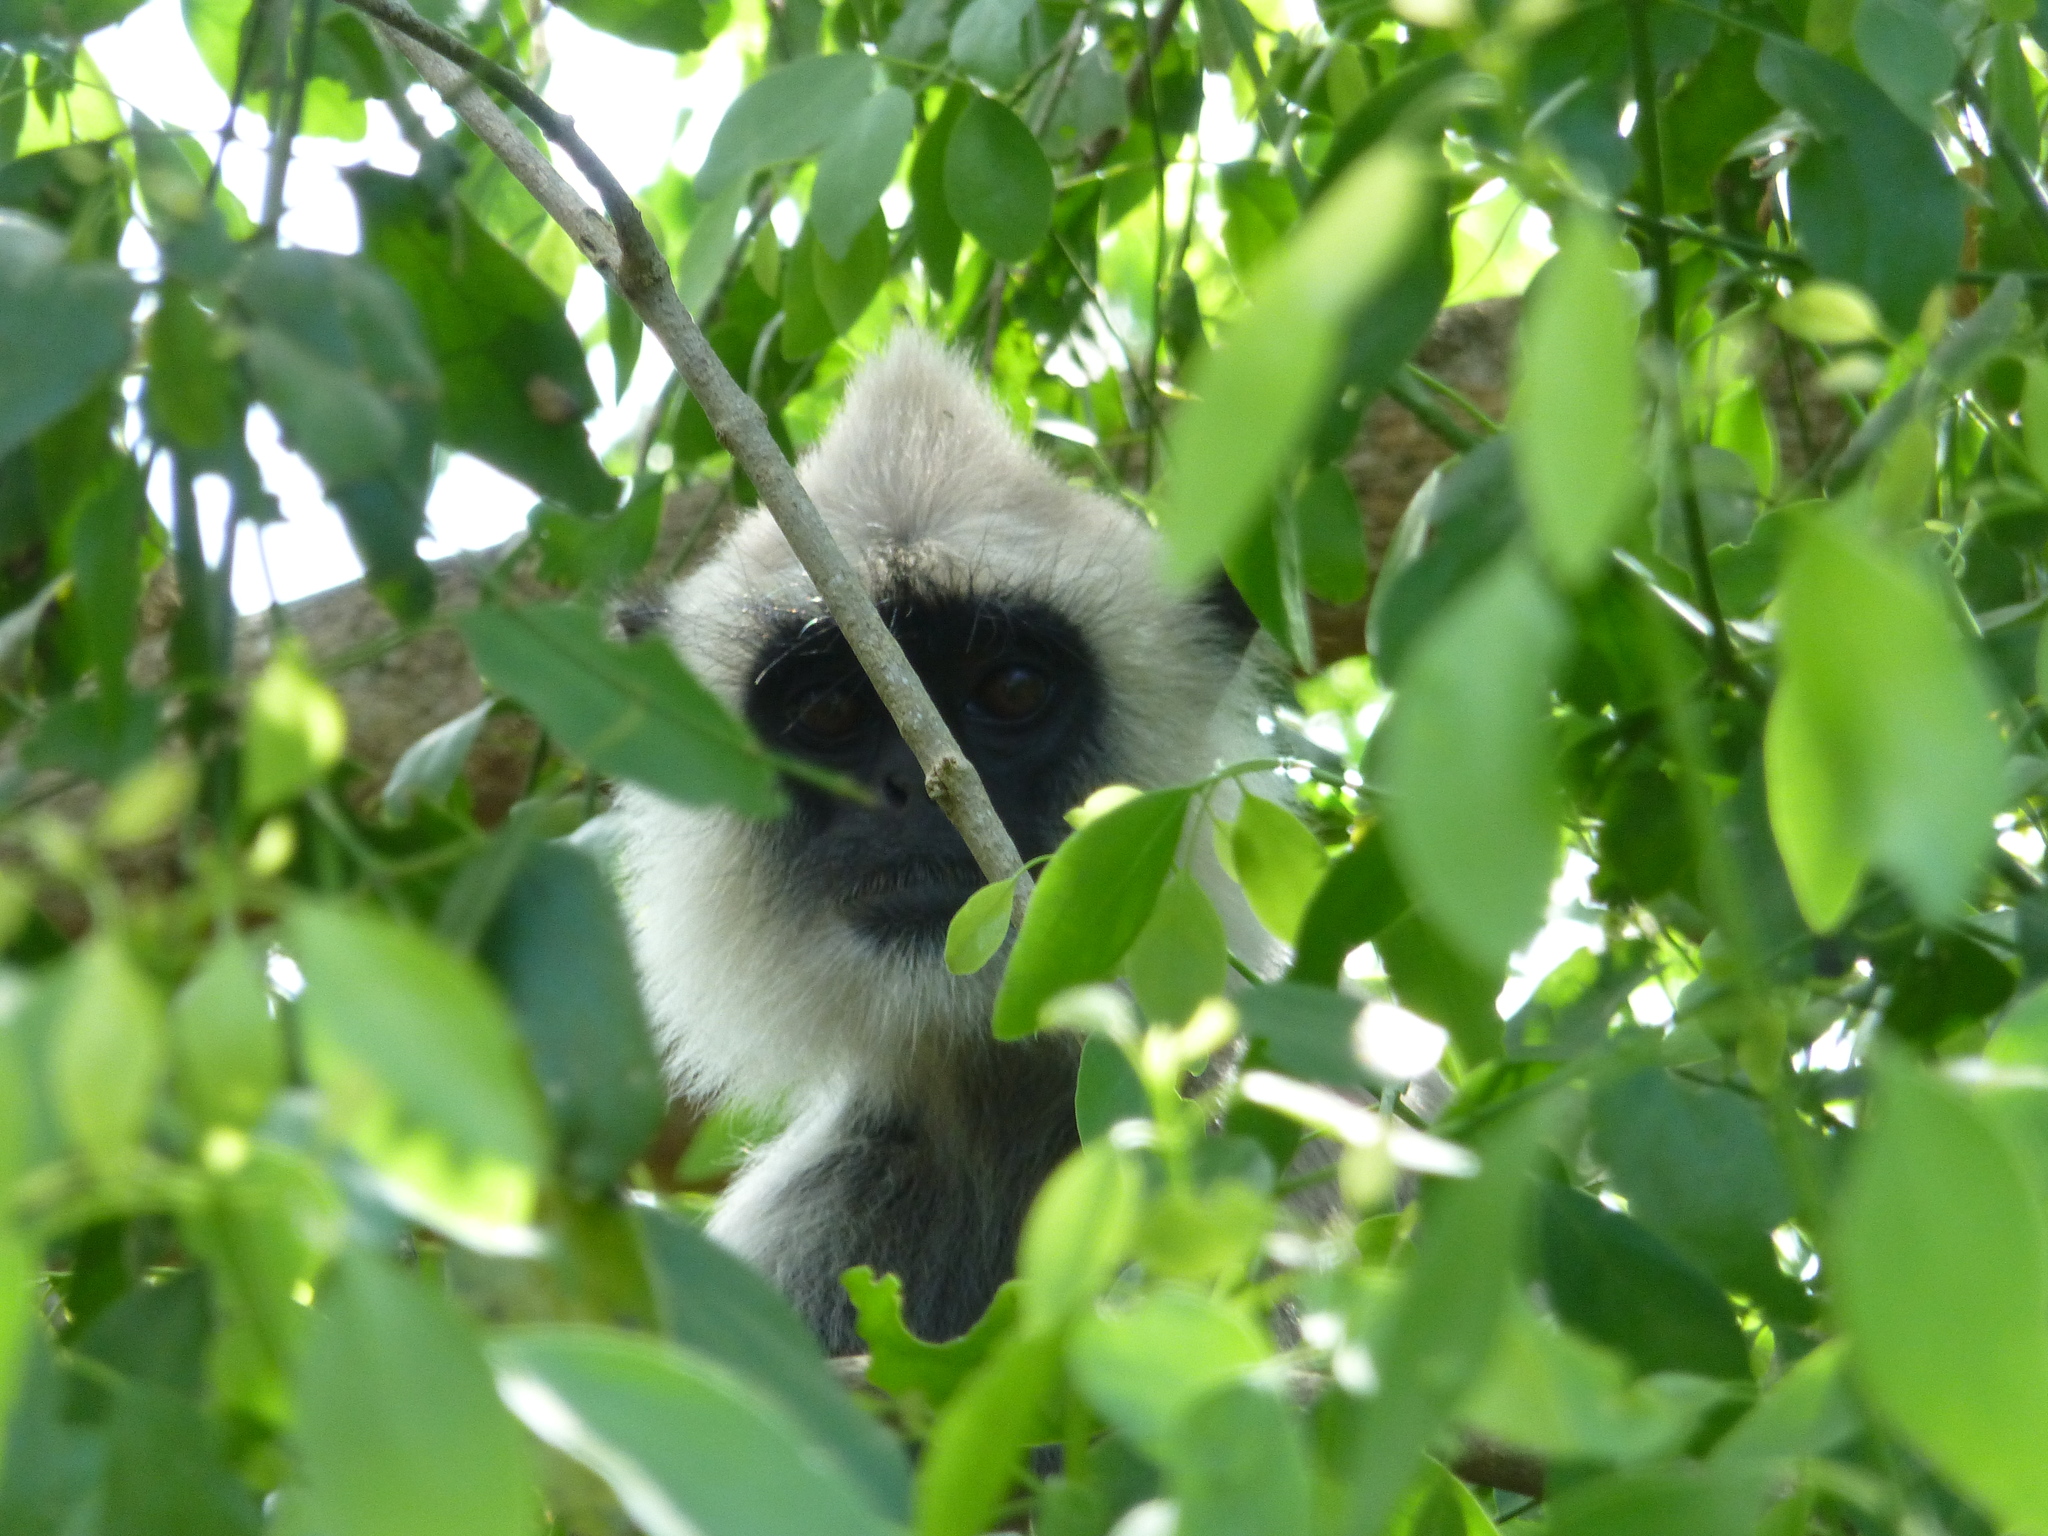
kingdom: Animalia
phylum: Chordata
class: Mammalia
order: Primates
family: Cercopithecidae
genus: Semnopithecus
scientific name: Semnopithecus priam
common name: Tufted gray langur
